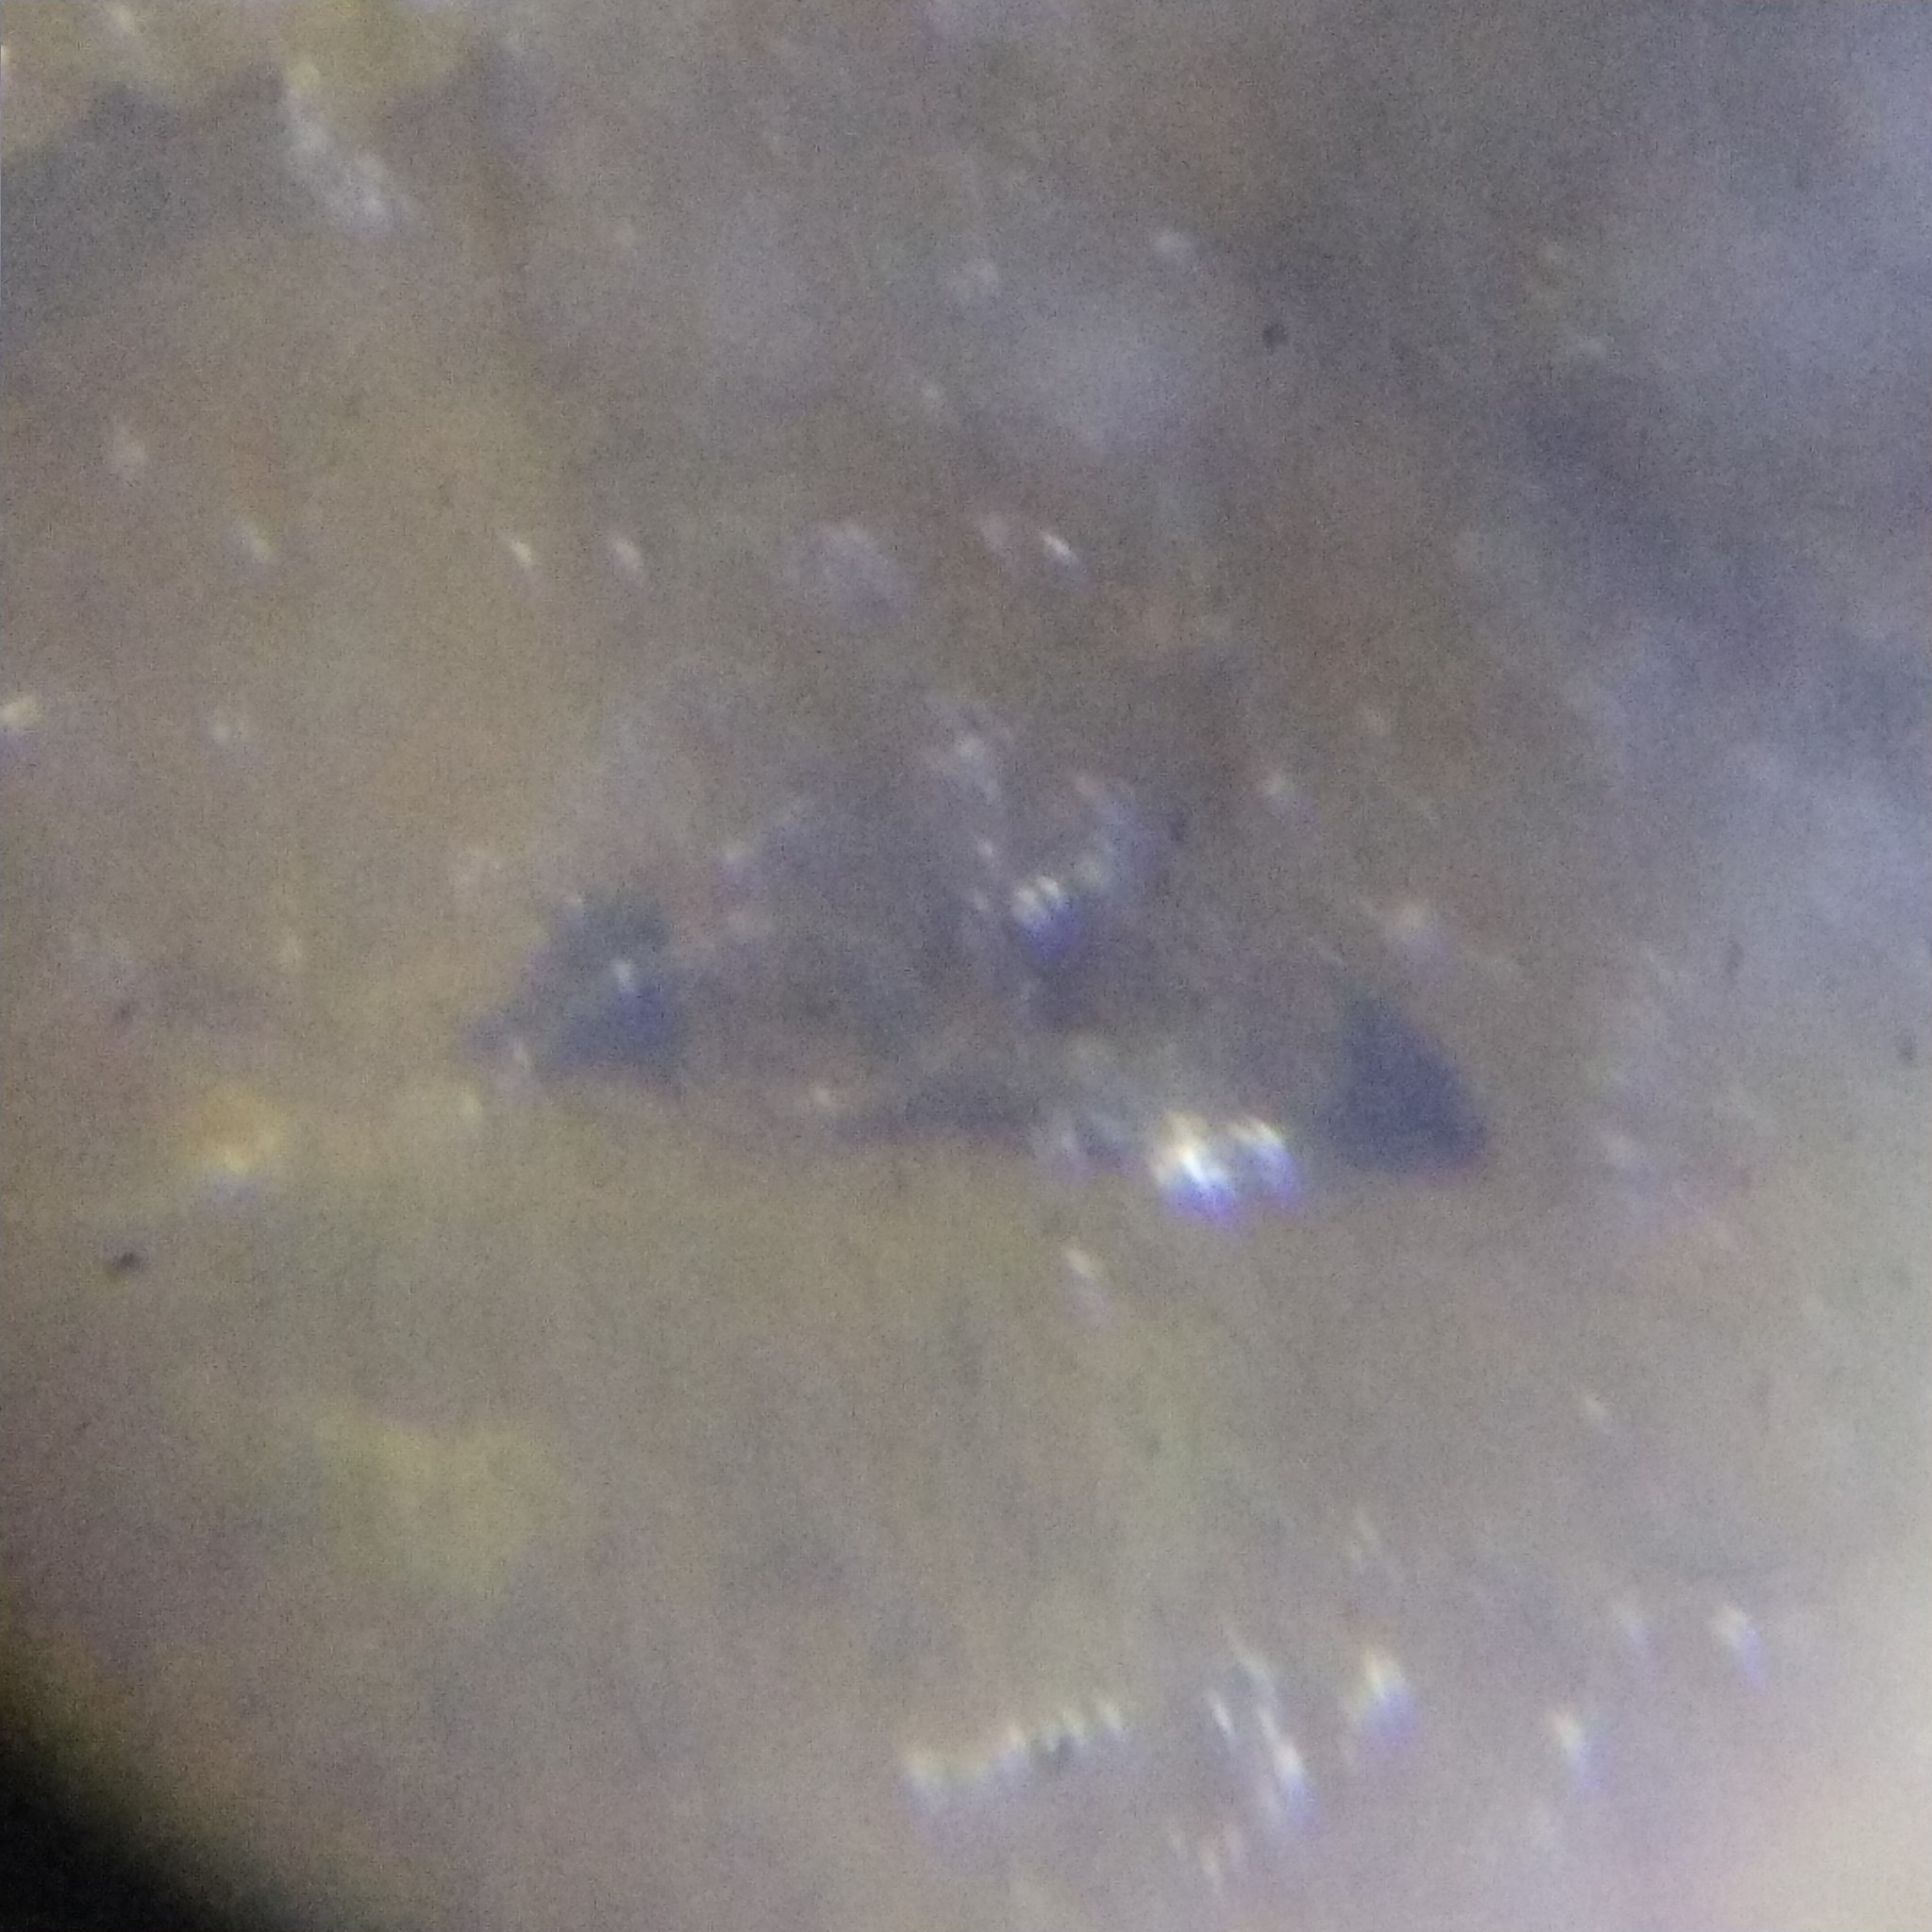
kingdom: Animalia
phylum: Arthropoda
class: Arachnida
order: Araneae
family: Theridiidae
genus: Phylloneta
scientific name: Phylloneta impressa
